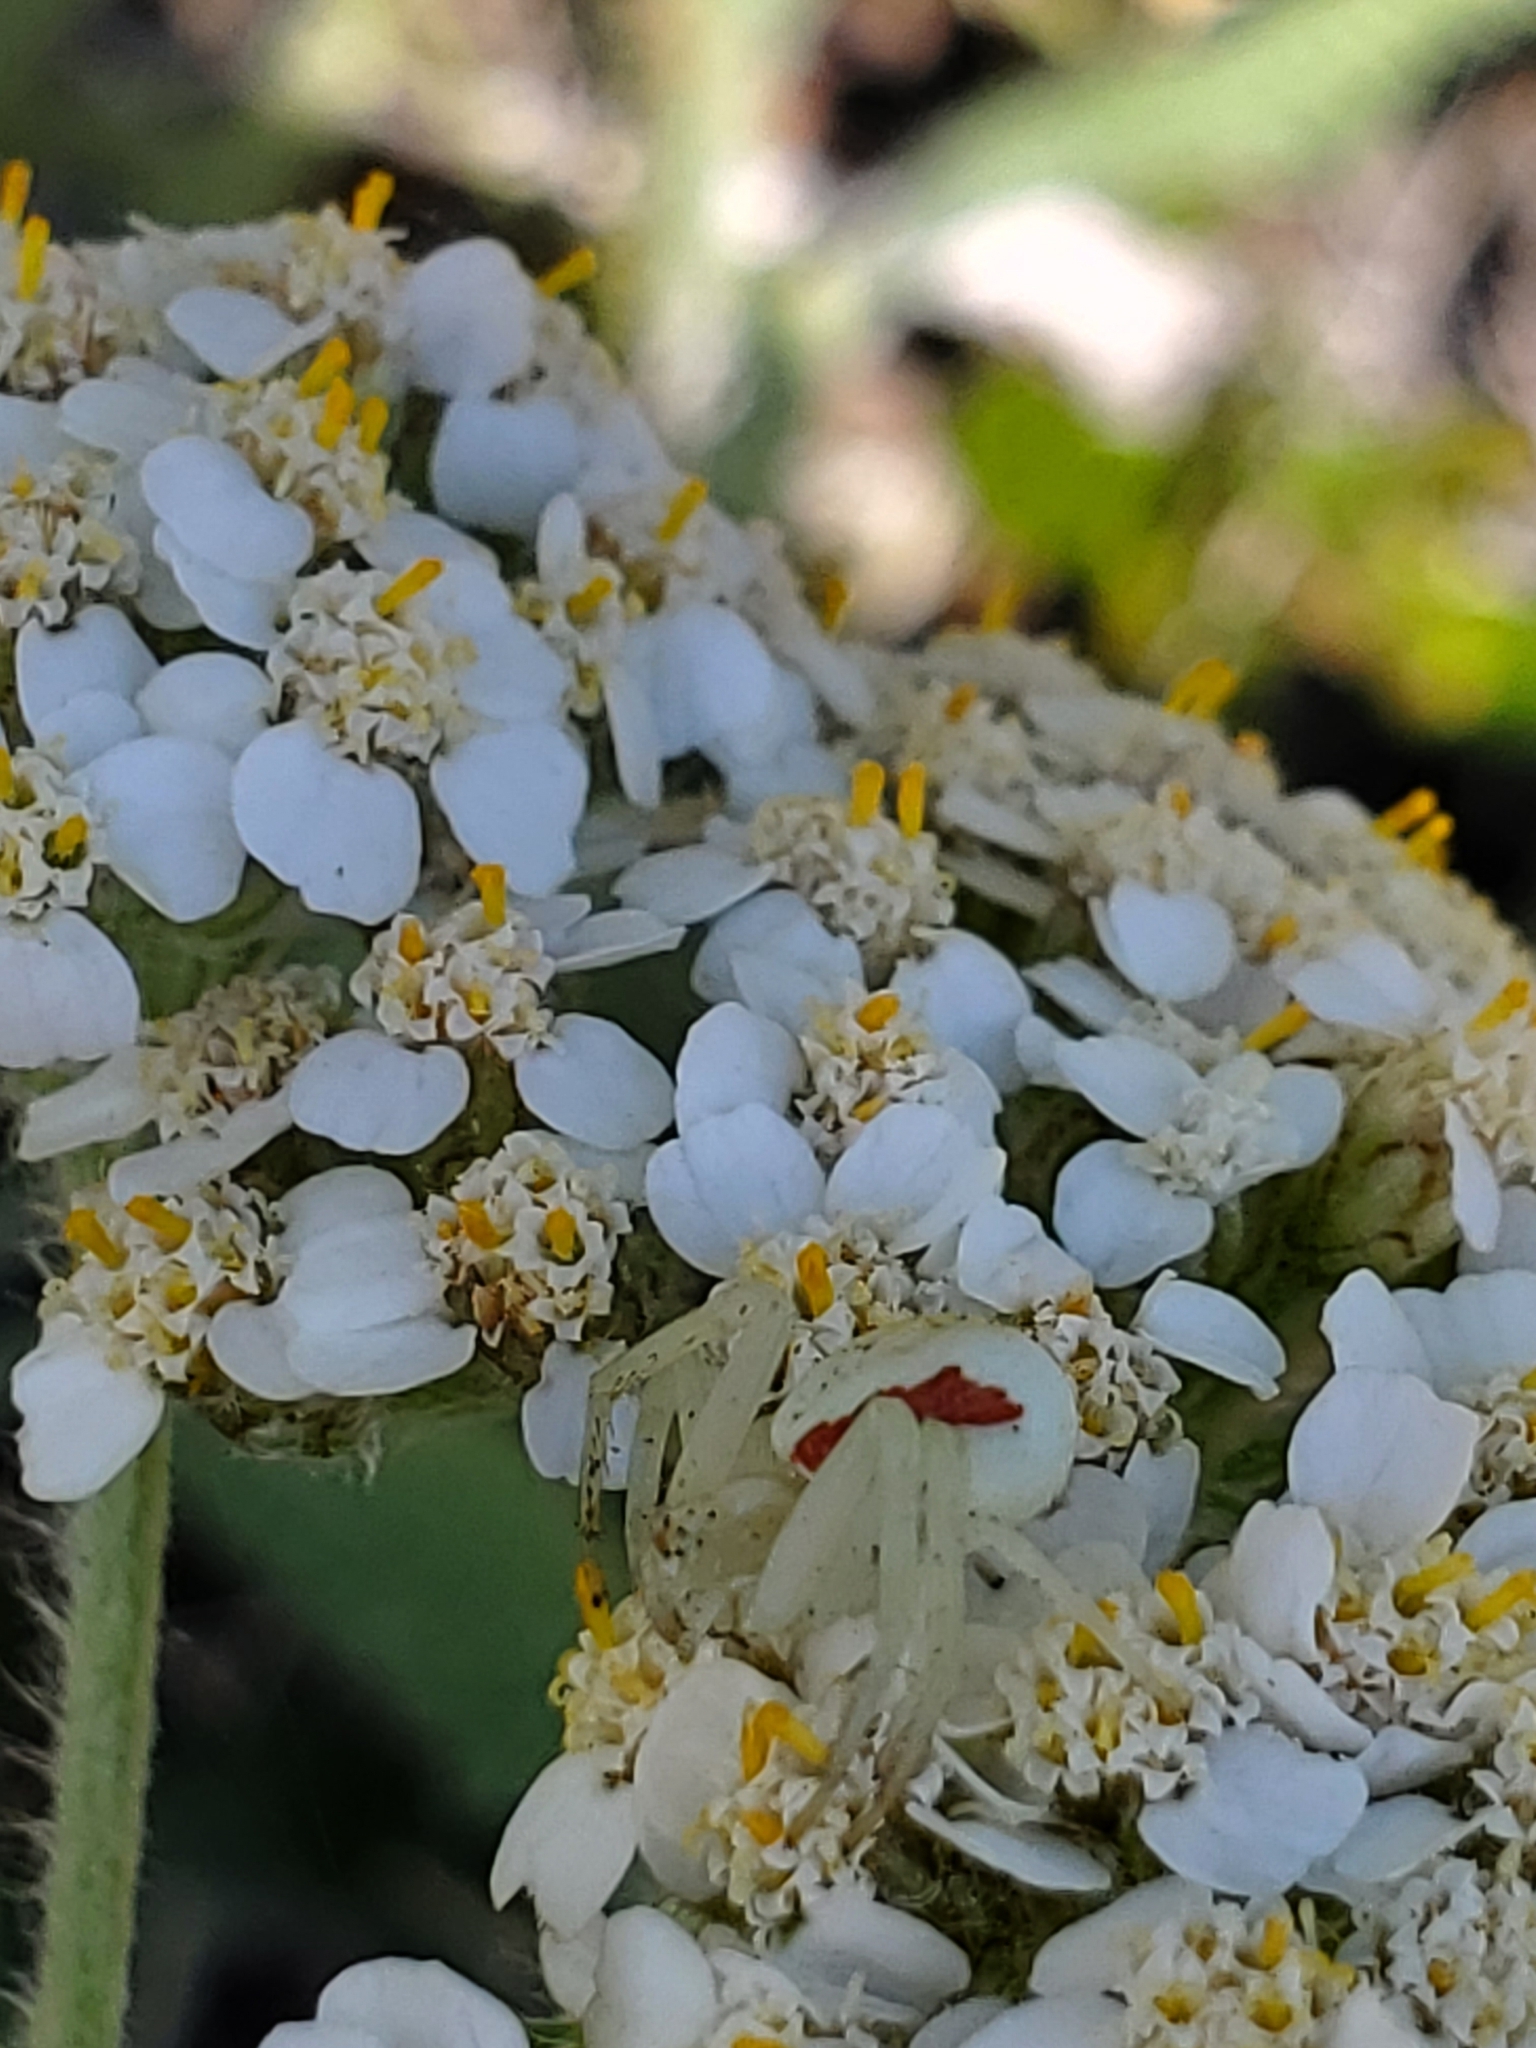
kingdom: Animalia
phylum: Arthropoda
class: Arachnida
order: Araneae
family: Thomisidae
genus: Misumena
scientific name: Misumena vatia
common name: Goldenrod crab spider
